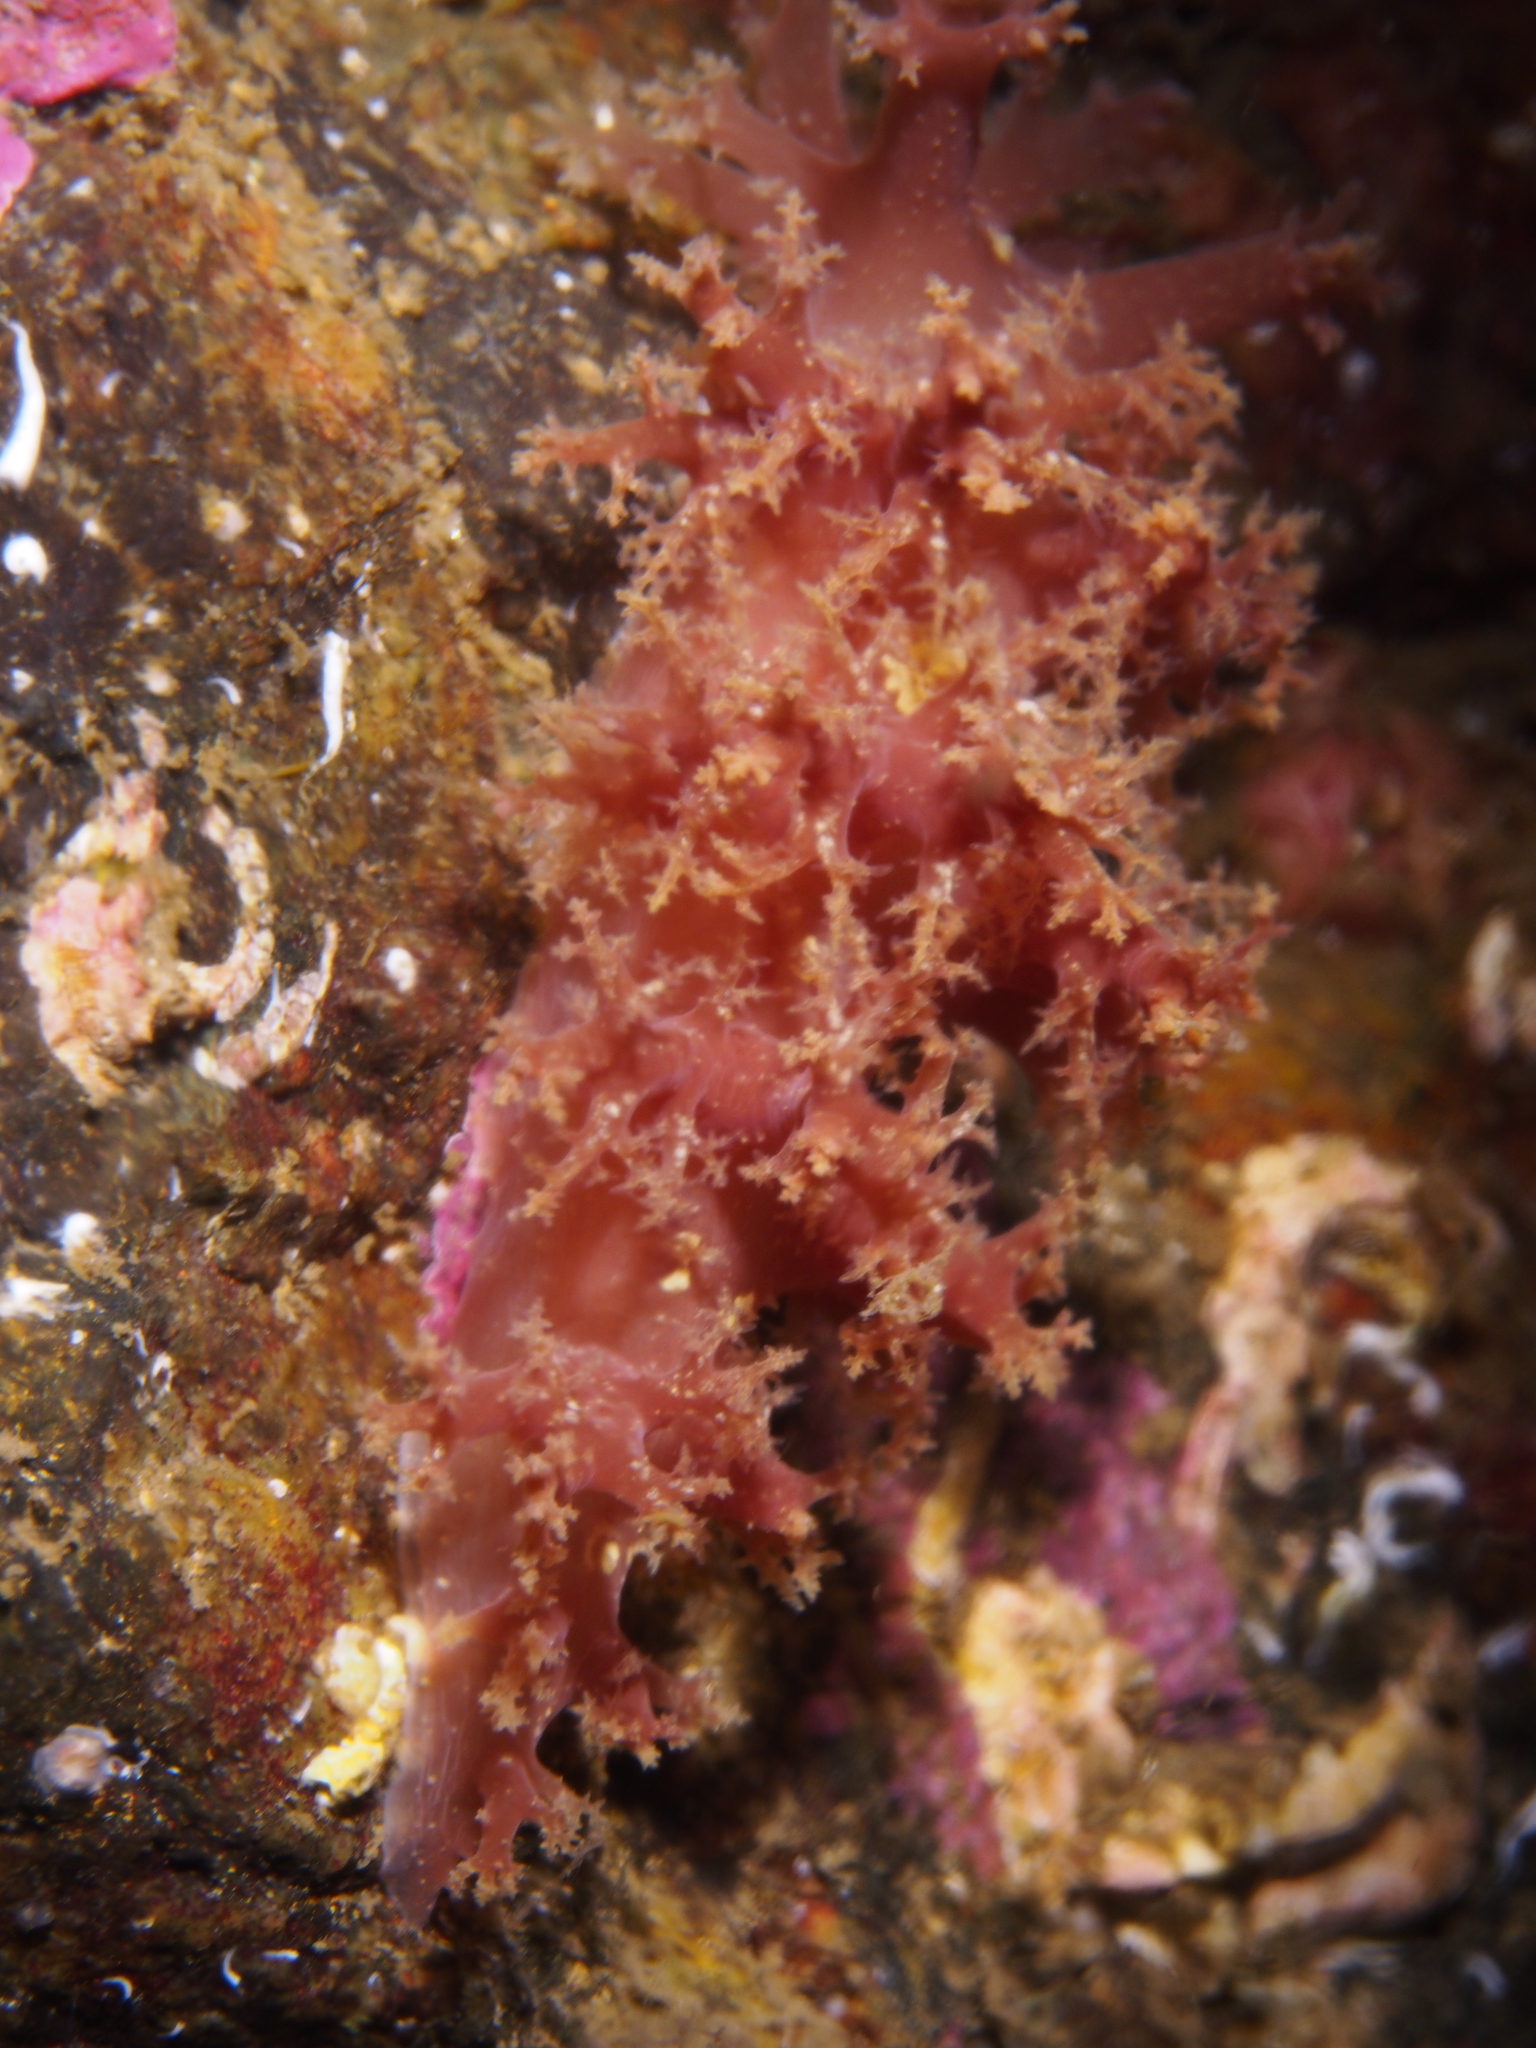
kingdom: Animalia
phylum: Mollusca
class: Gastropoda
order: Nudibranchia
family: Dendronotidae
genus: Dendronotus
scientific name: Dendronotus lacteus
